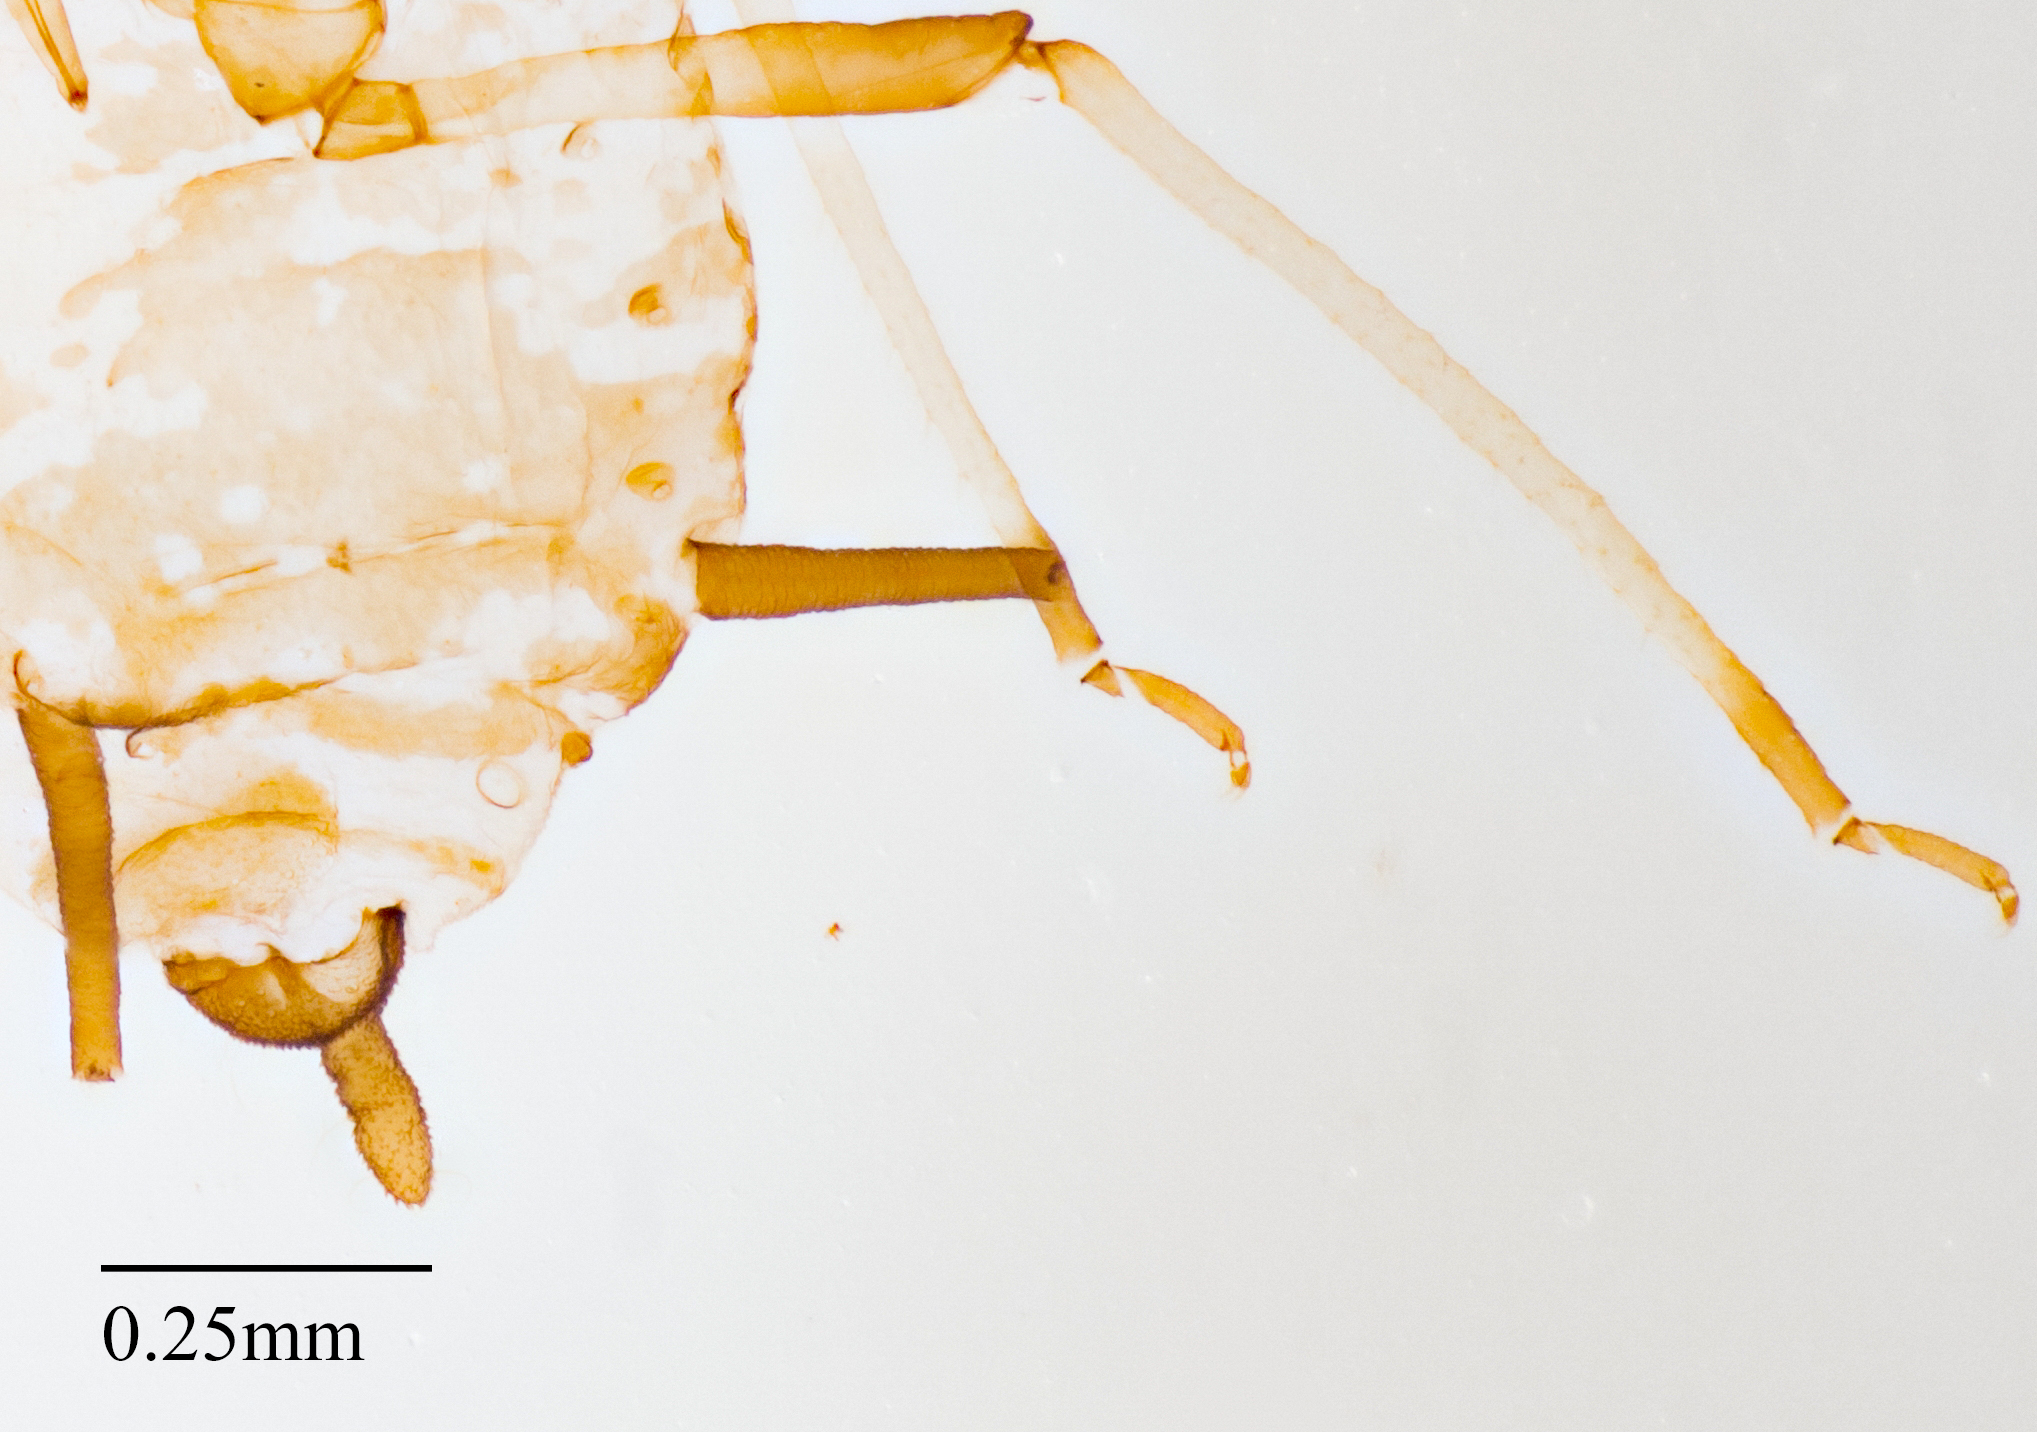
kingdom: Animalia
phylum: Arthropoda
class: Insecta
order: Hemiptera
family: Aphididae
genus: Aphis
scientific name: Aphis cytisorum
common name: Broom aphid
